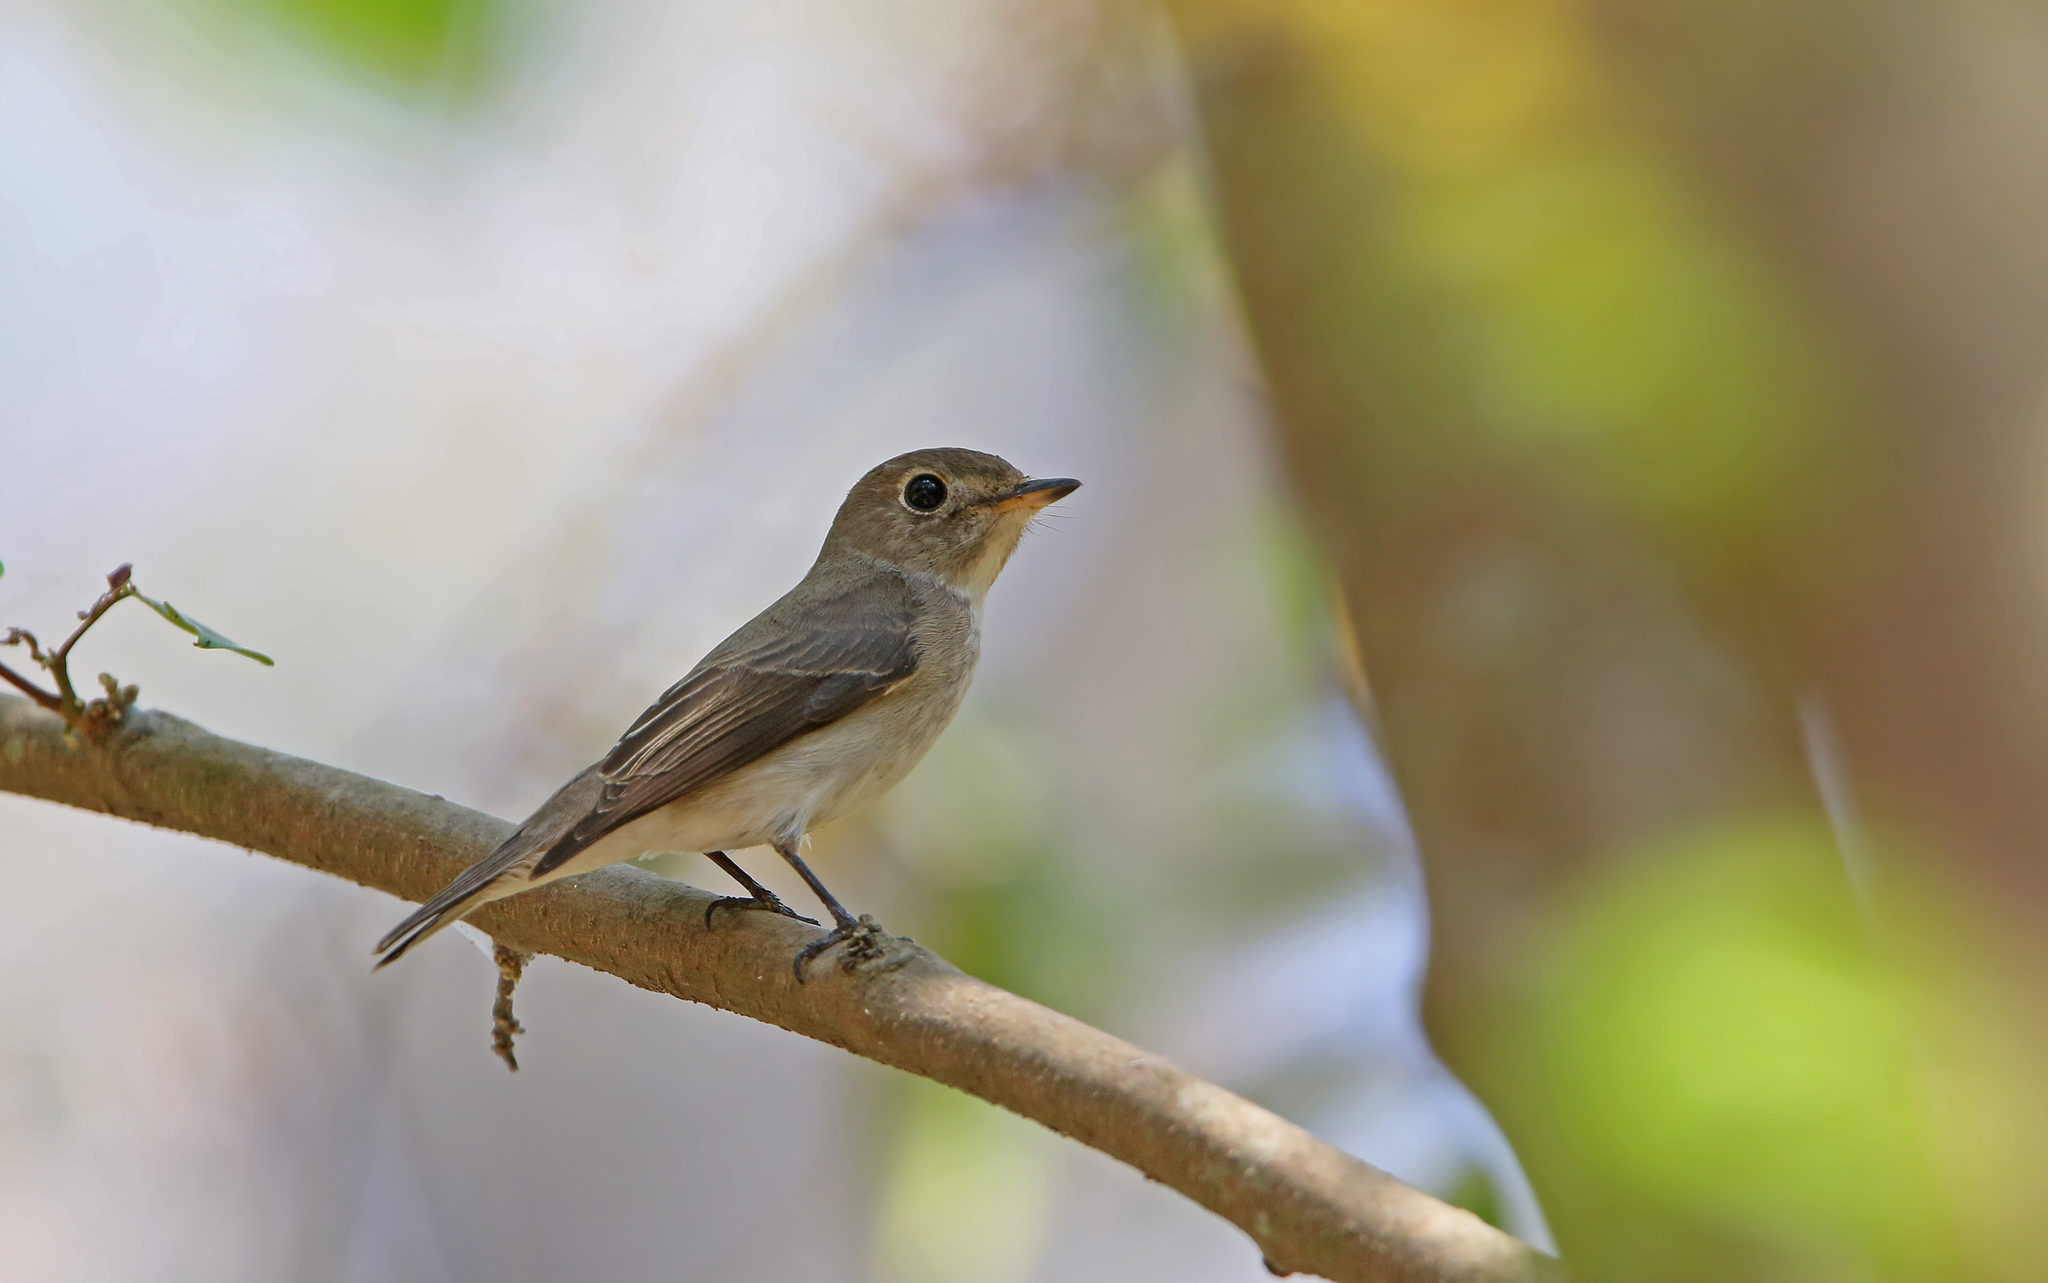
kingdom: Animalia
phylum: Chordata
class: Aves
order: Passeriformes
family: Muscicapidae
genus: Muscicapa
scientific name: Muscicapa latirostris
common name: Asian brown flycatcher
